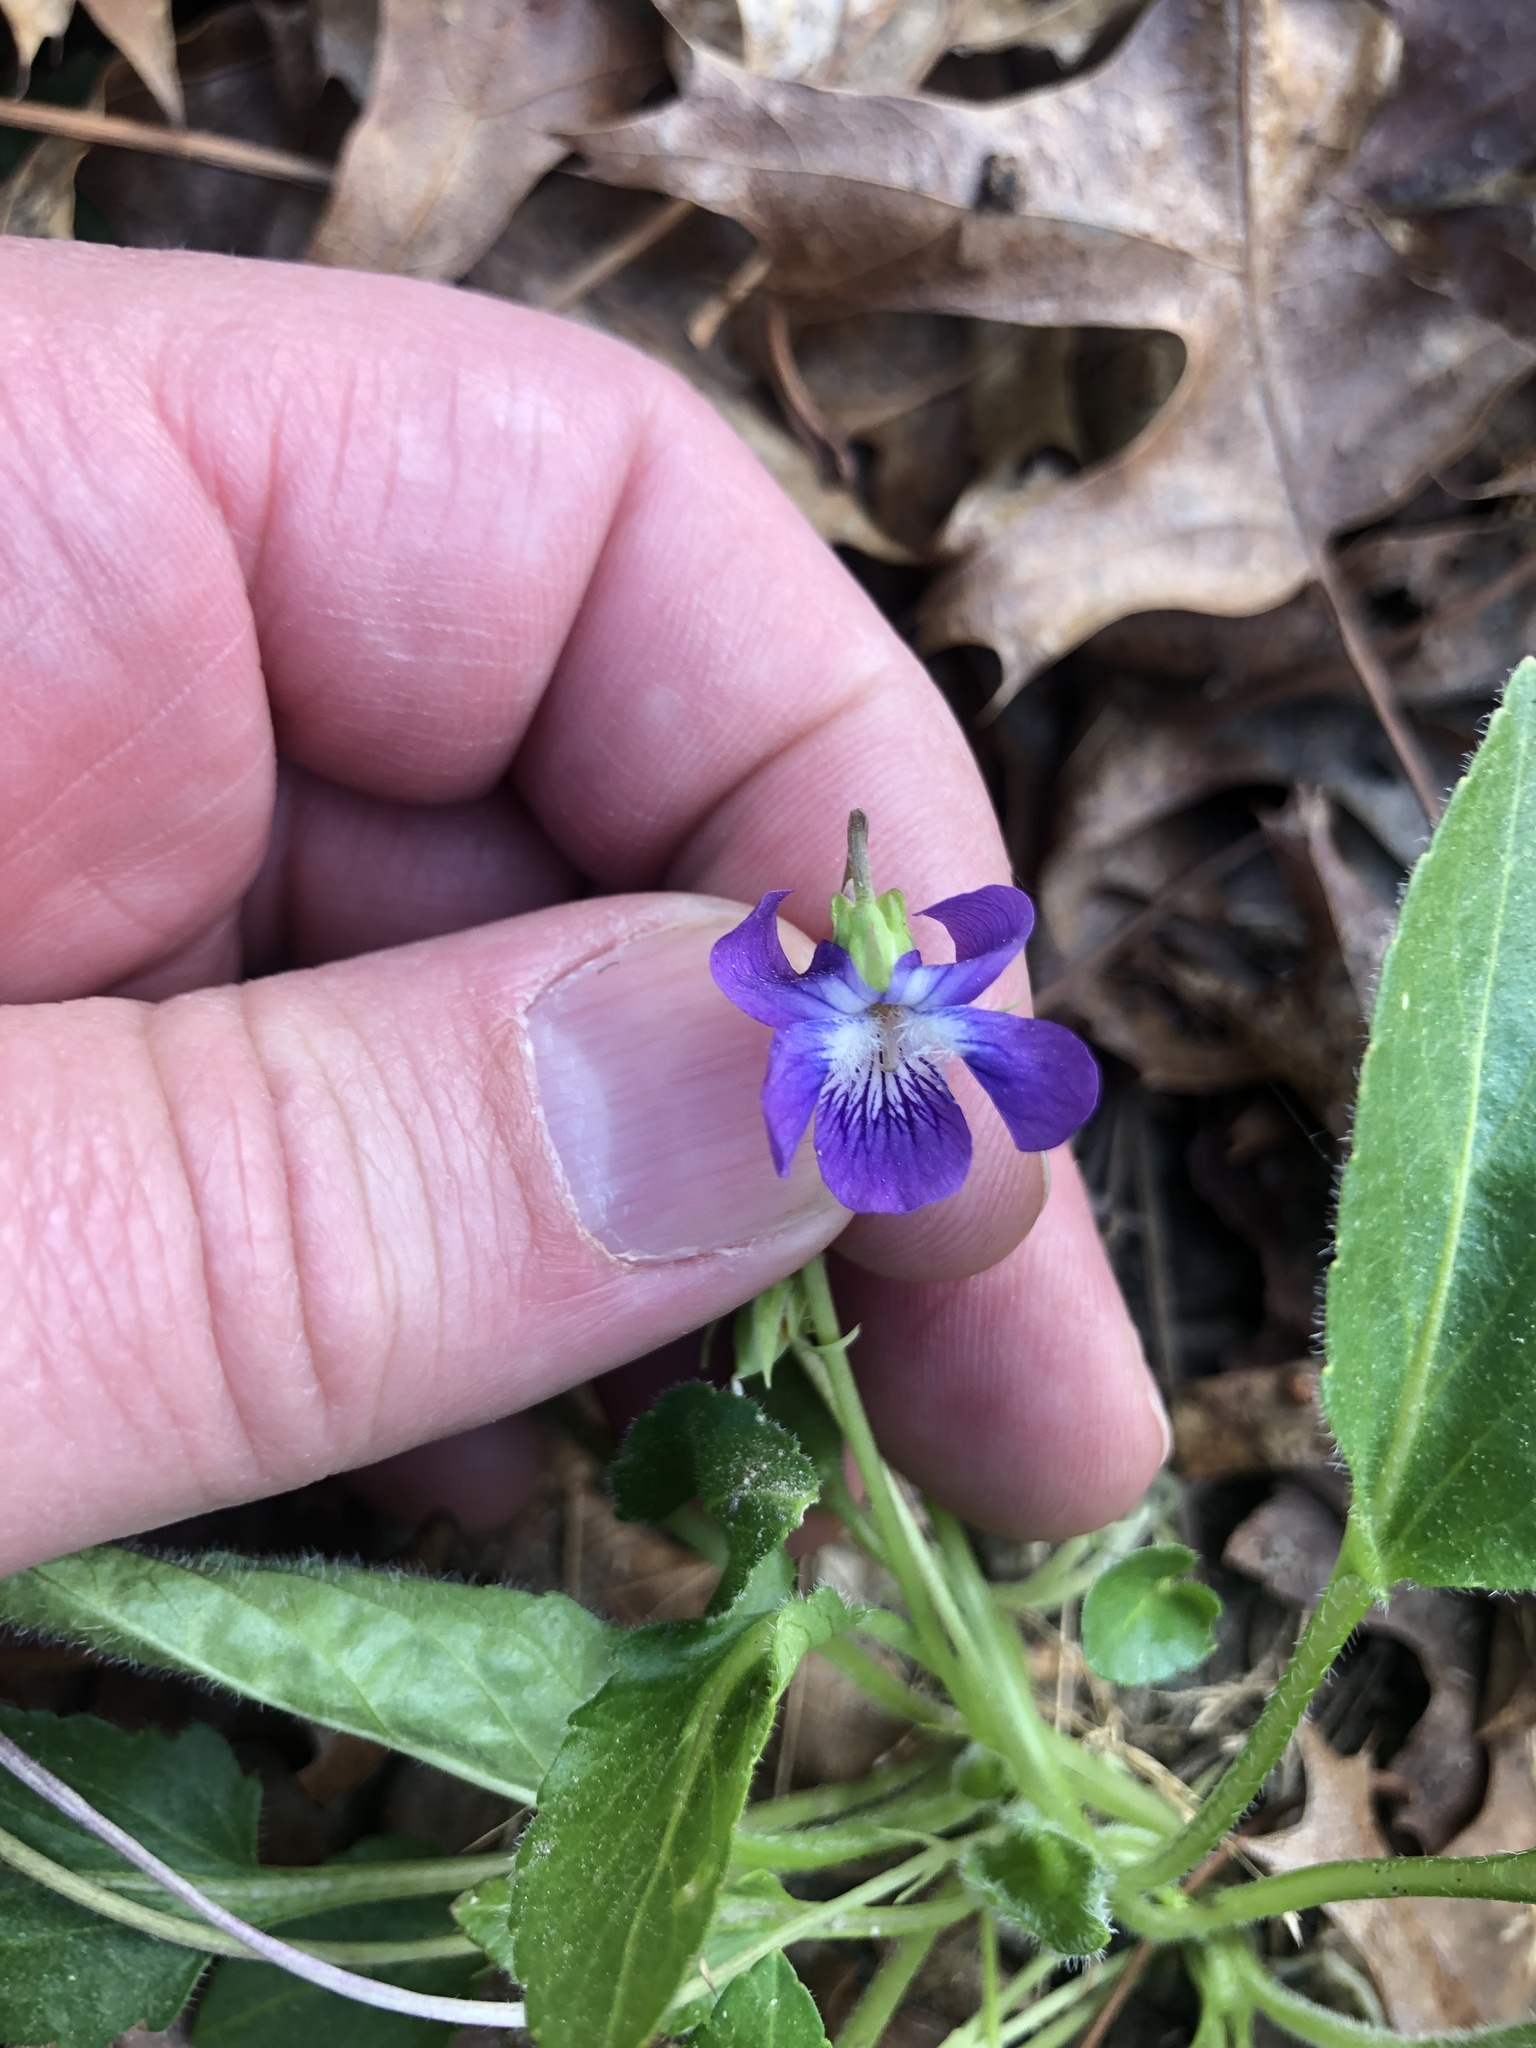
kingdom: Plantae
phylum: Tracheophyta
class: Magnoliopsida
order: Malpighiales
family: Violaceae
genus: Viola
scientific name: Viola sagittata
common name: Arrowhead violet
